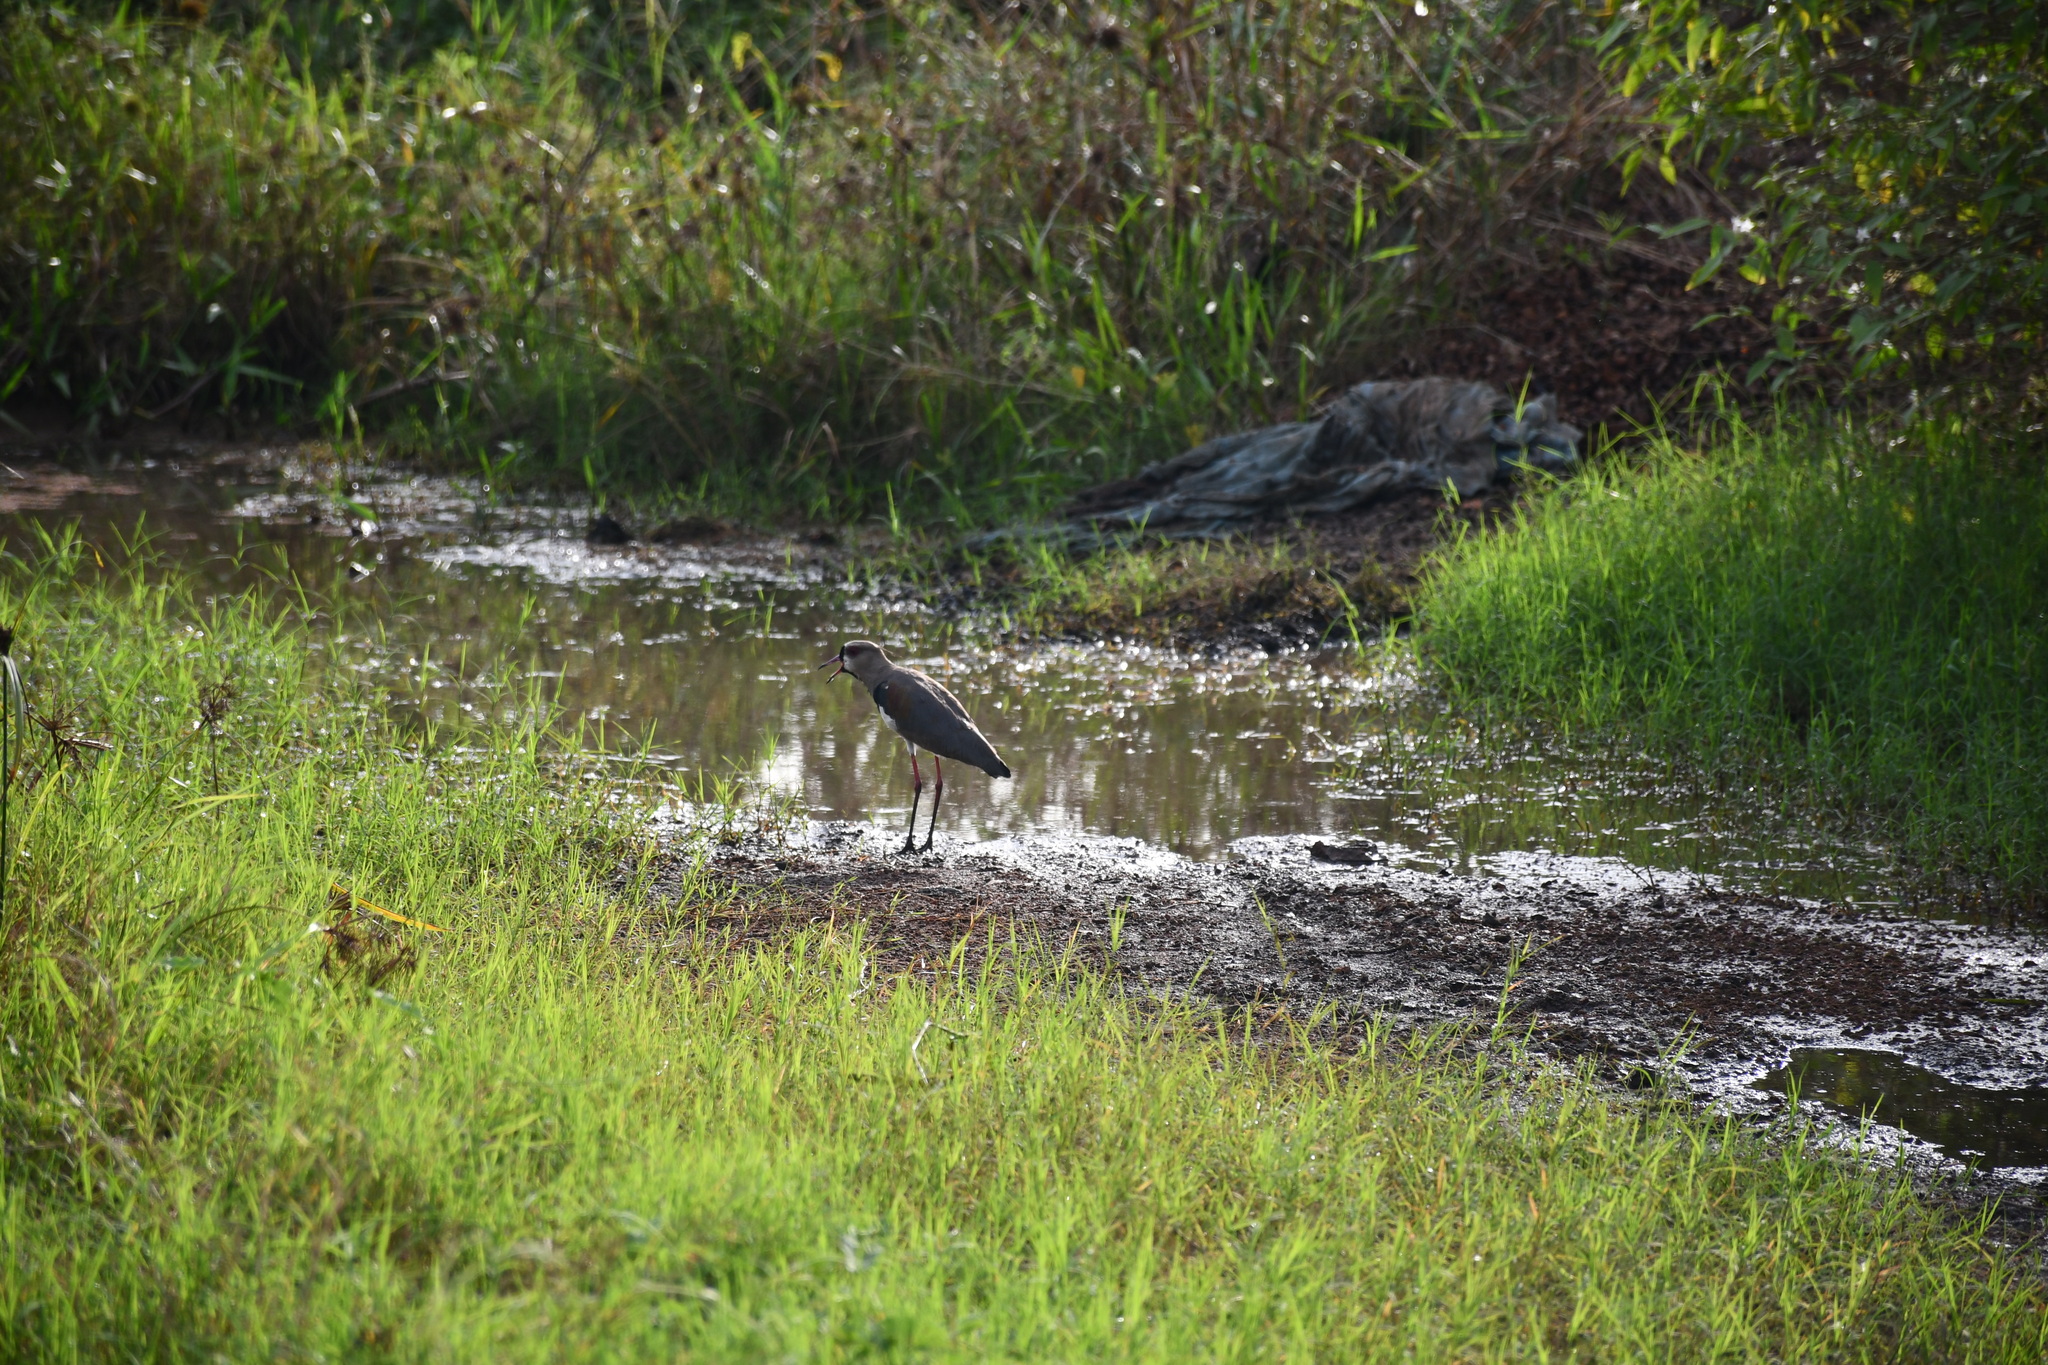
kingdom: Animalia
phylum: Chordata
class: Aves
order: Charadriiformes
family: Charadriidae
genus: Vanellus
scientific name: Vanellus chilensis
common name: Southern lapwing
